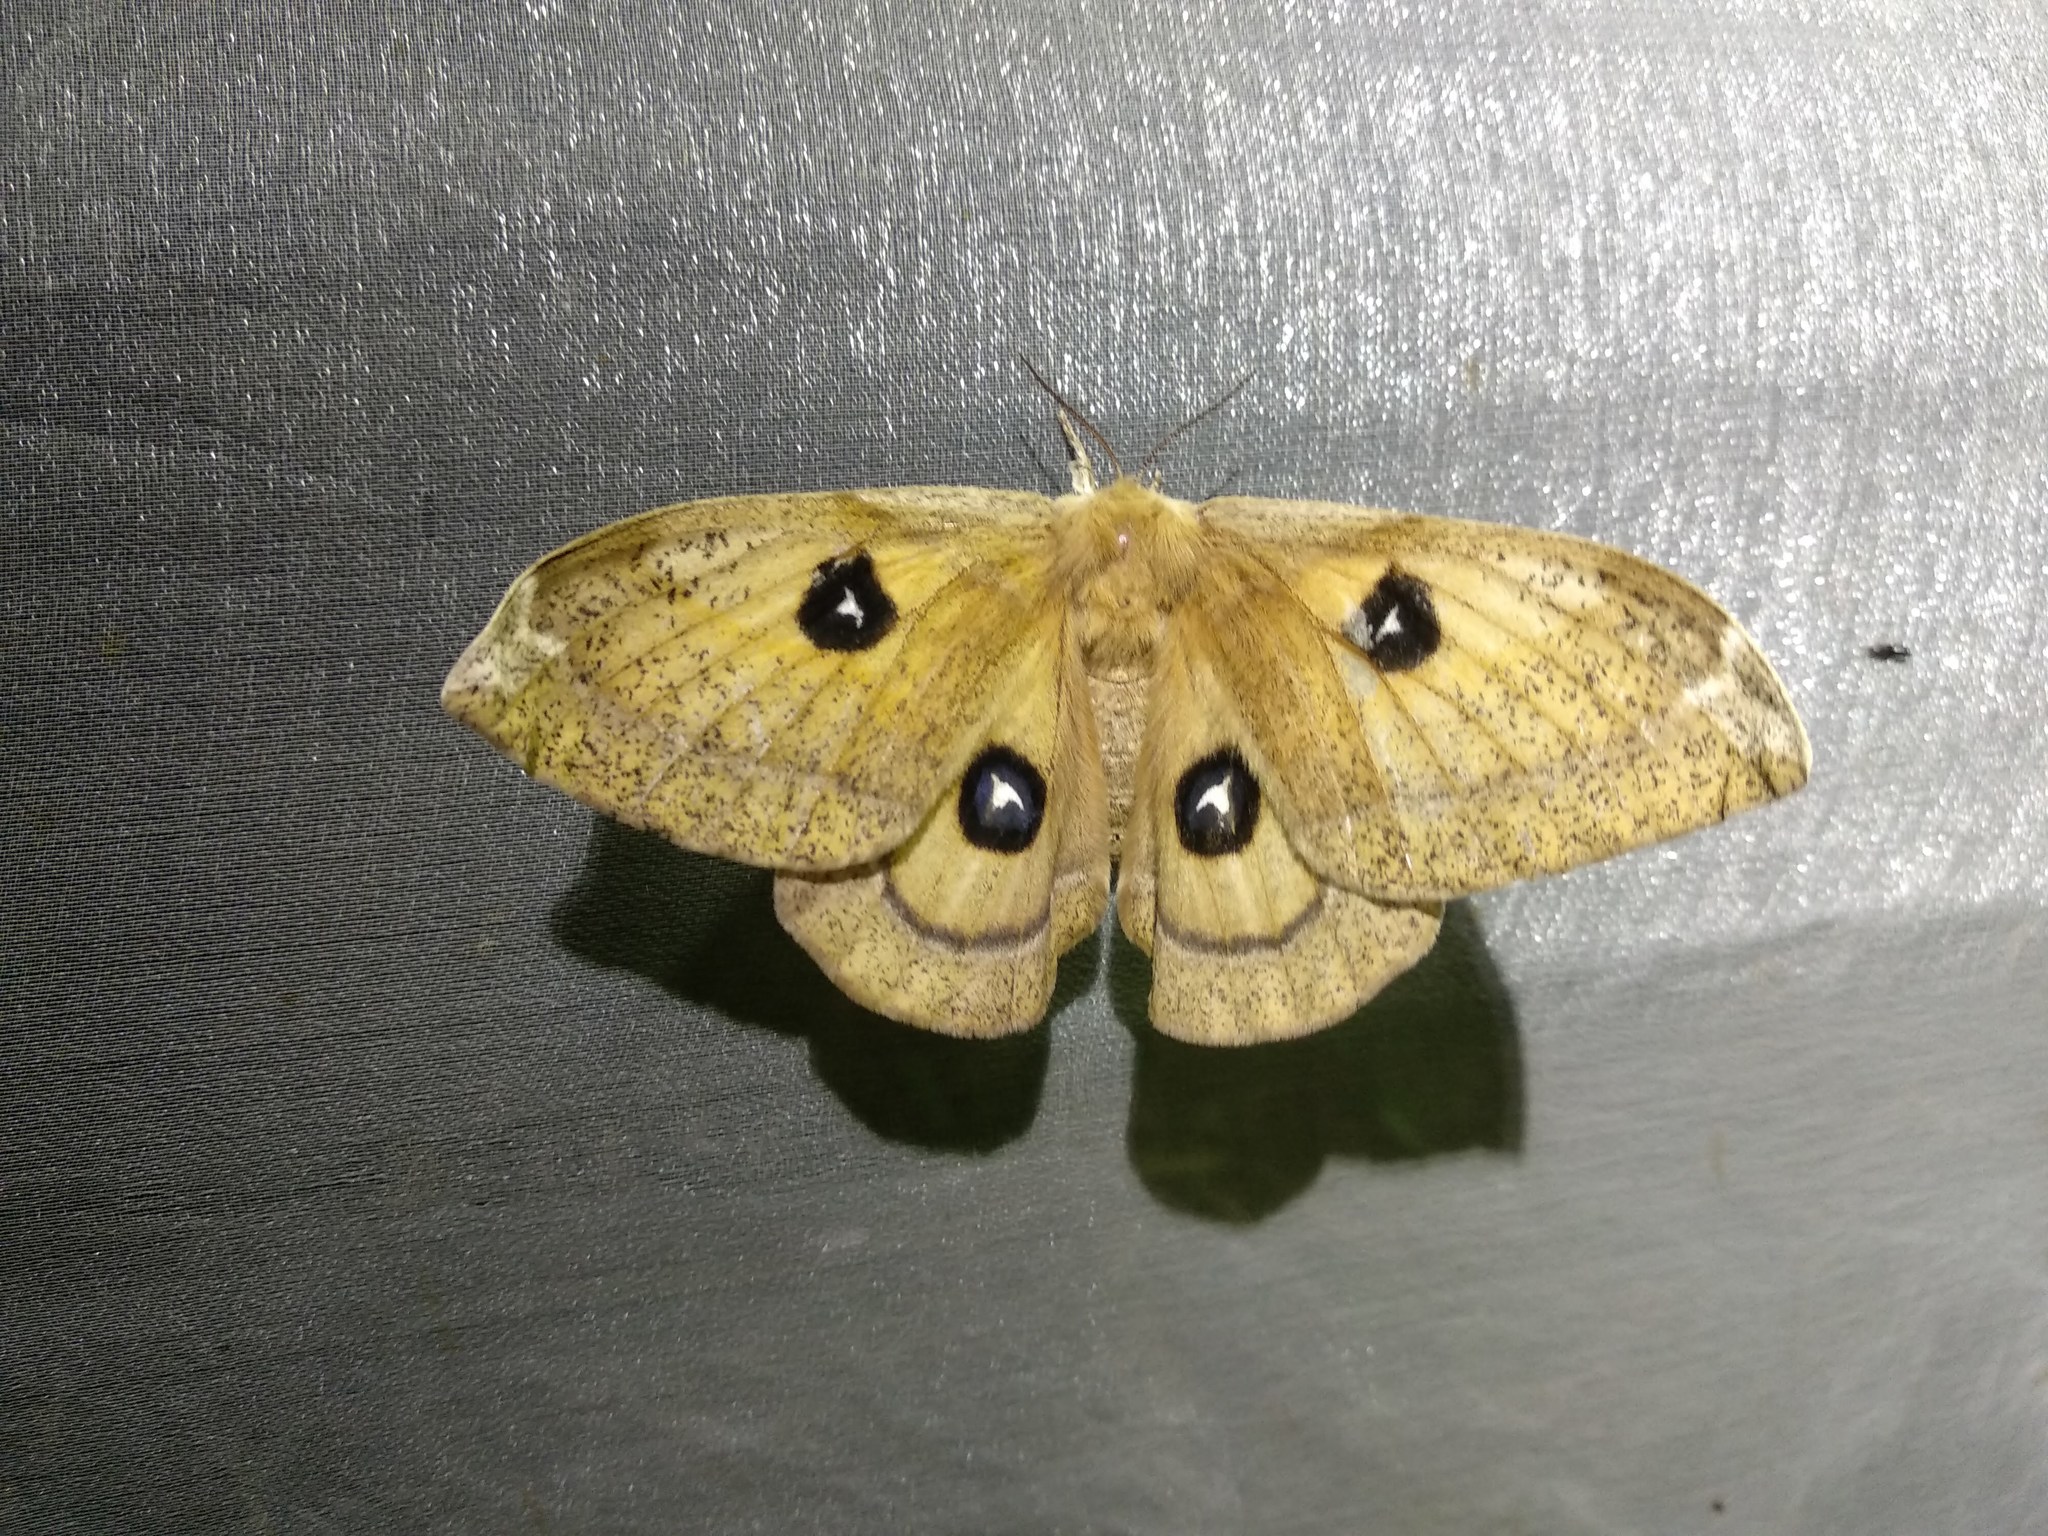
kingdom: Animalia
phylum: Arthropoda
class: Insecta
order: Lepidoptera
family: Saturniidae
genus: Aglia
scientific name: Aglia tau
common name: Tau emperor
